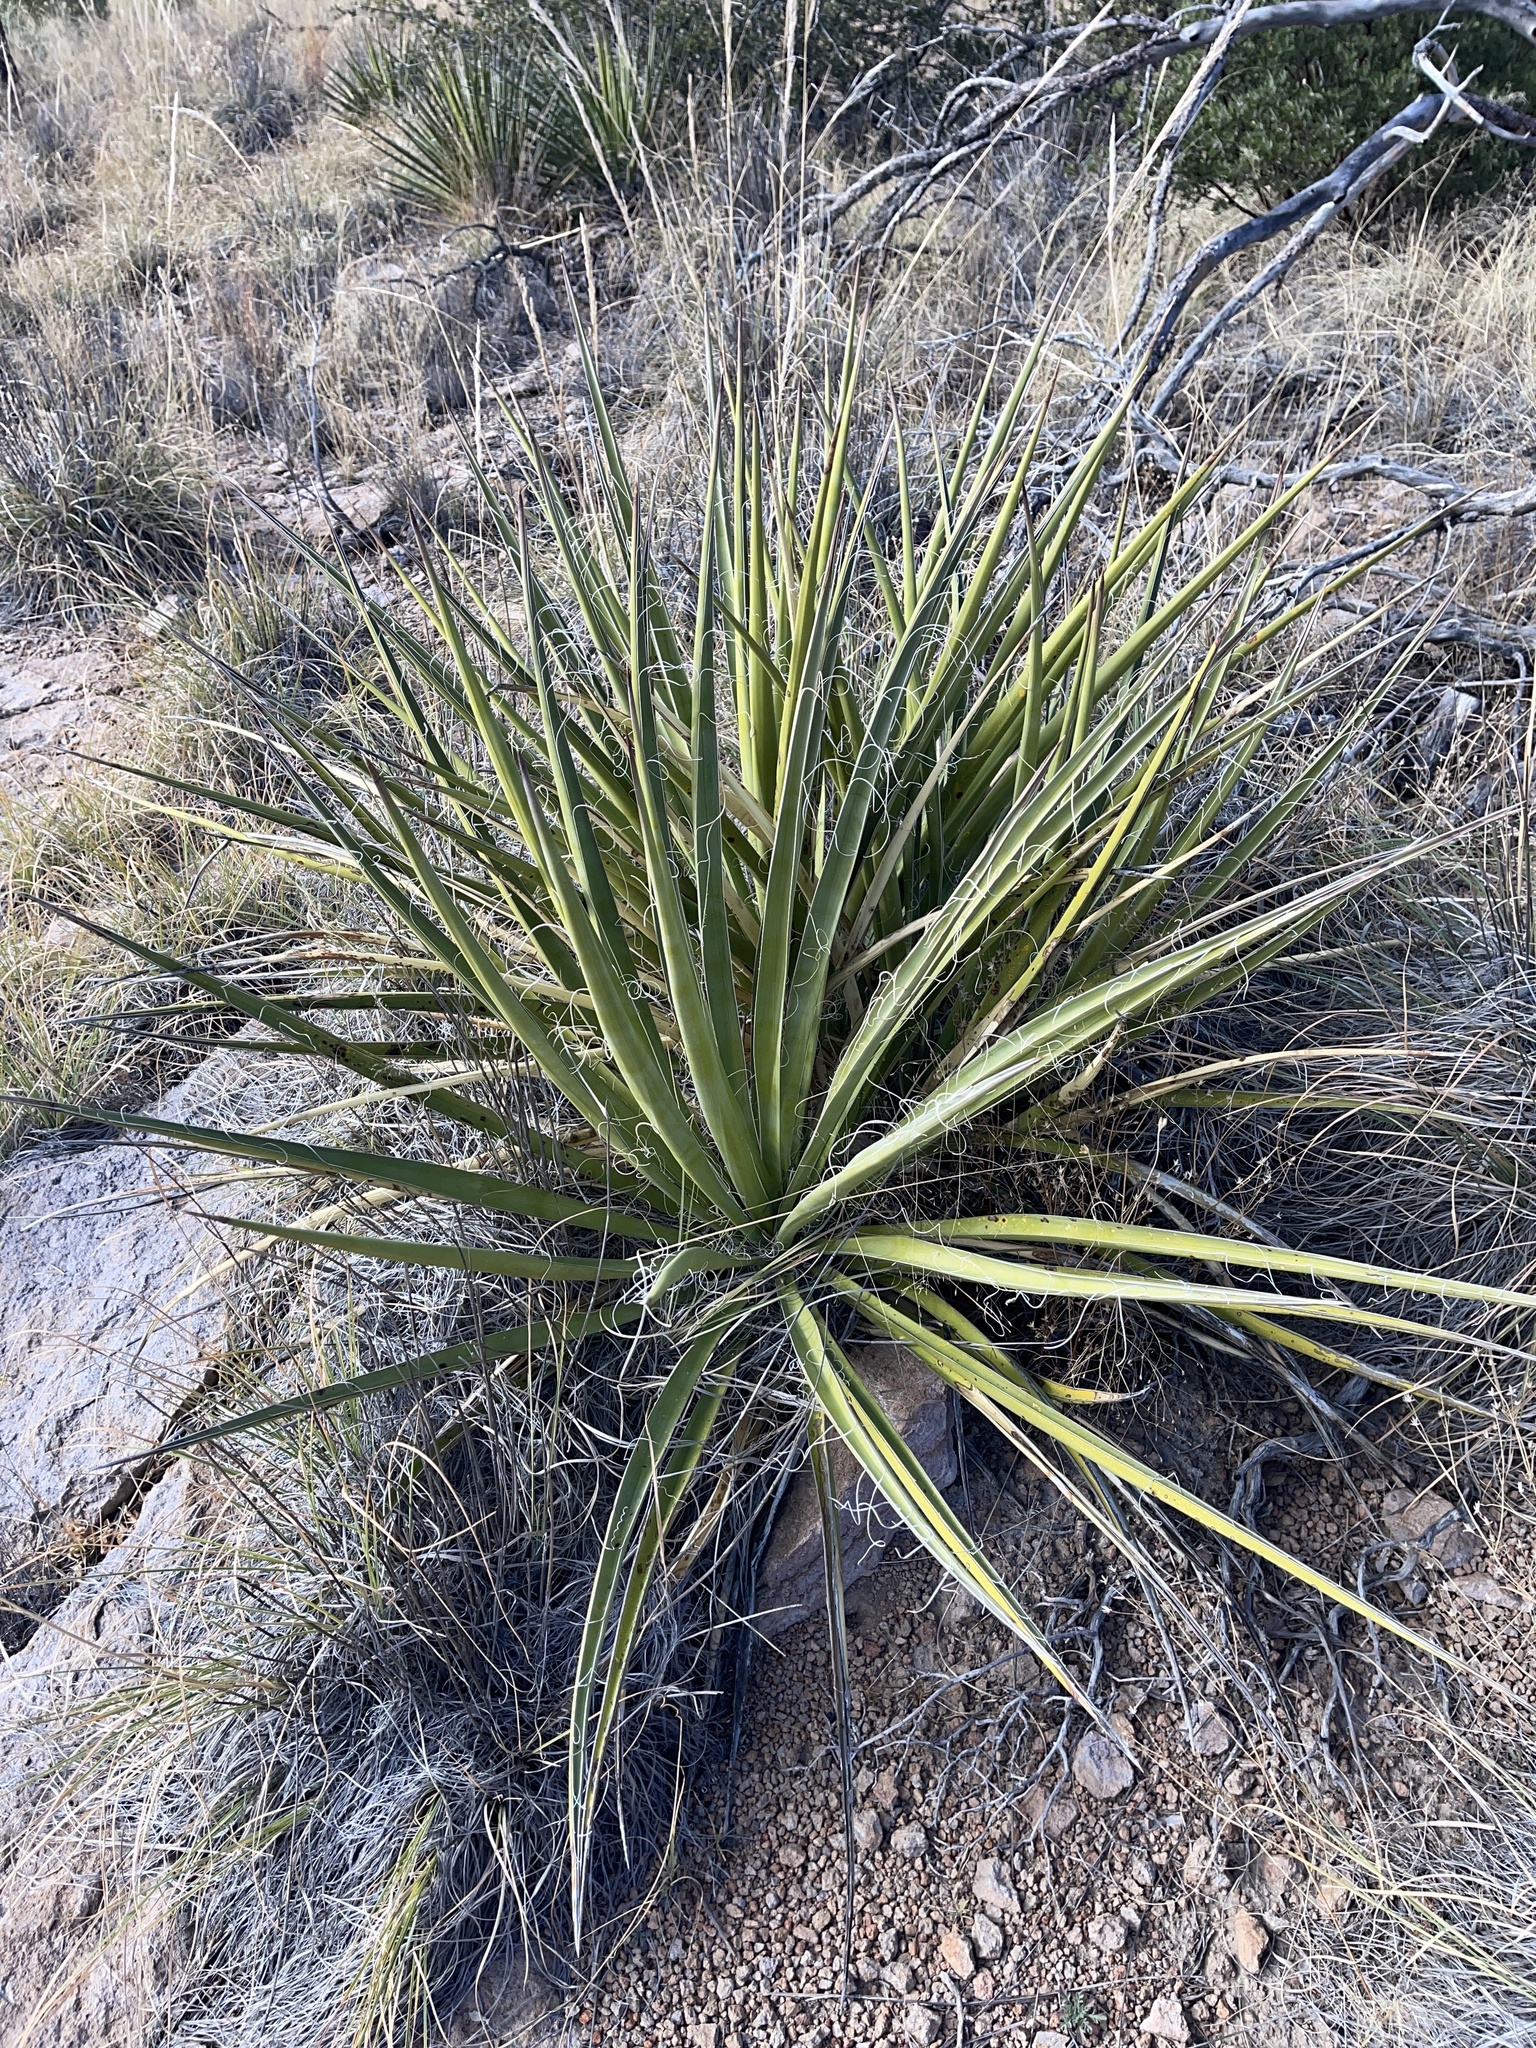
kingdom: Plantae
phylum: Tracheophyta
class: Liliopsida
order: Asparagales
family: Asparagaceae
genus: Yucca
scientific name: Yucca baccata
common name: Banana yucca
